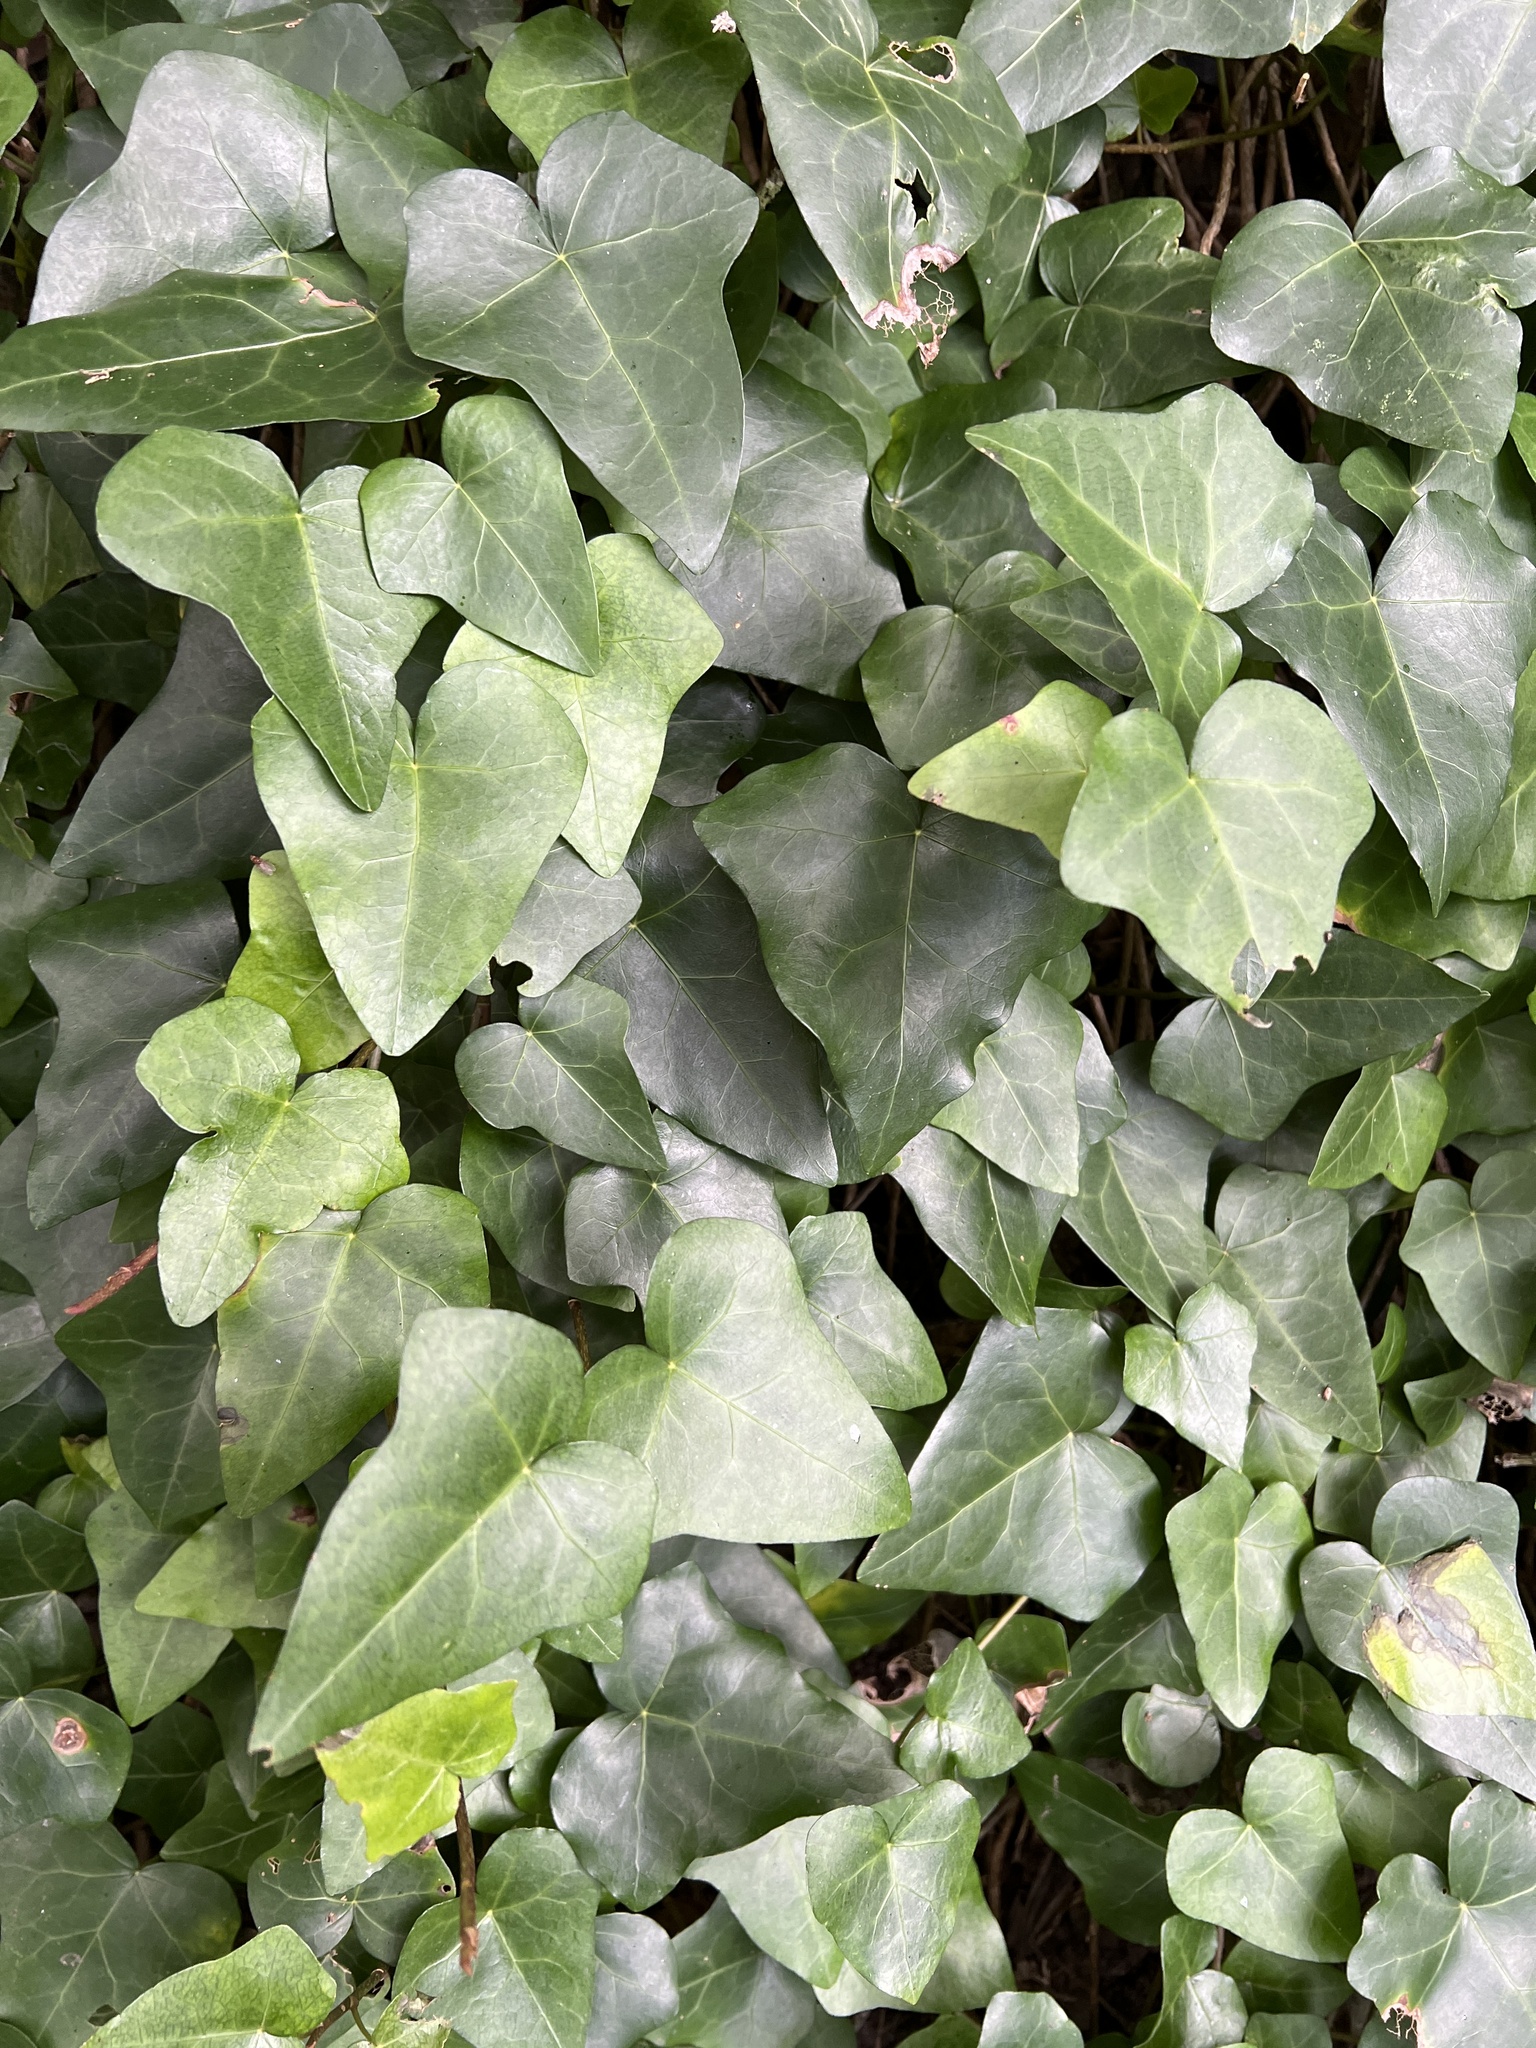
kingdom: Plantae
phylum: Tracheophyta
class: Magnoliopsida
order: Apiales
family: Araliaceae
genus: Hedera
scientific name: Hedera canariensis
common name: Madeira ivy
